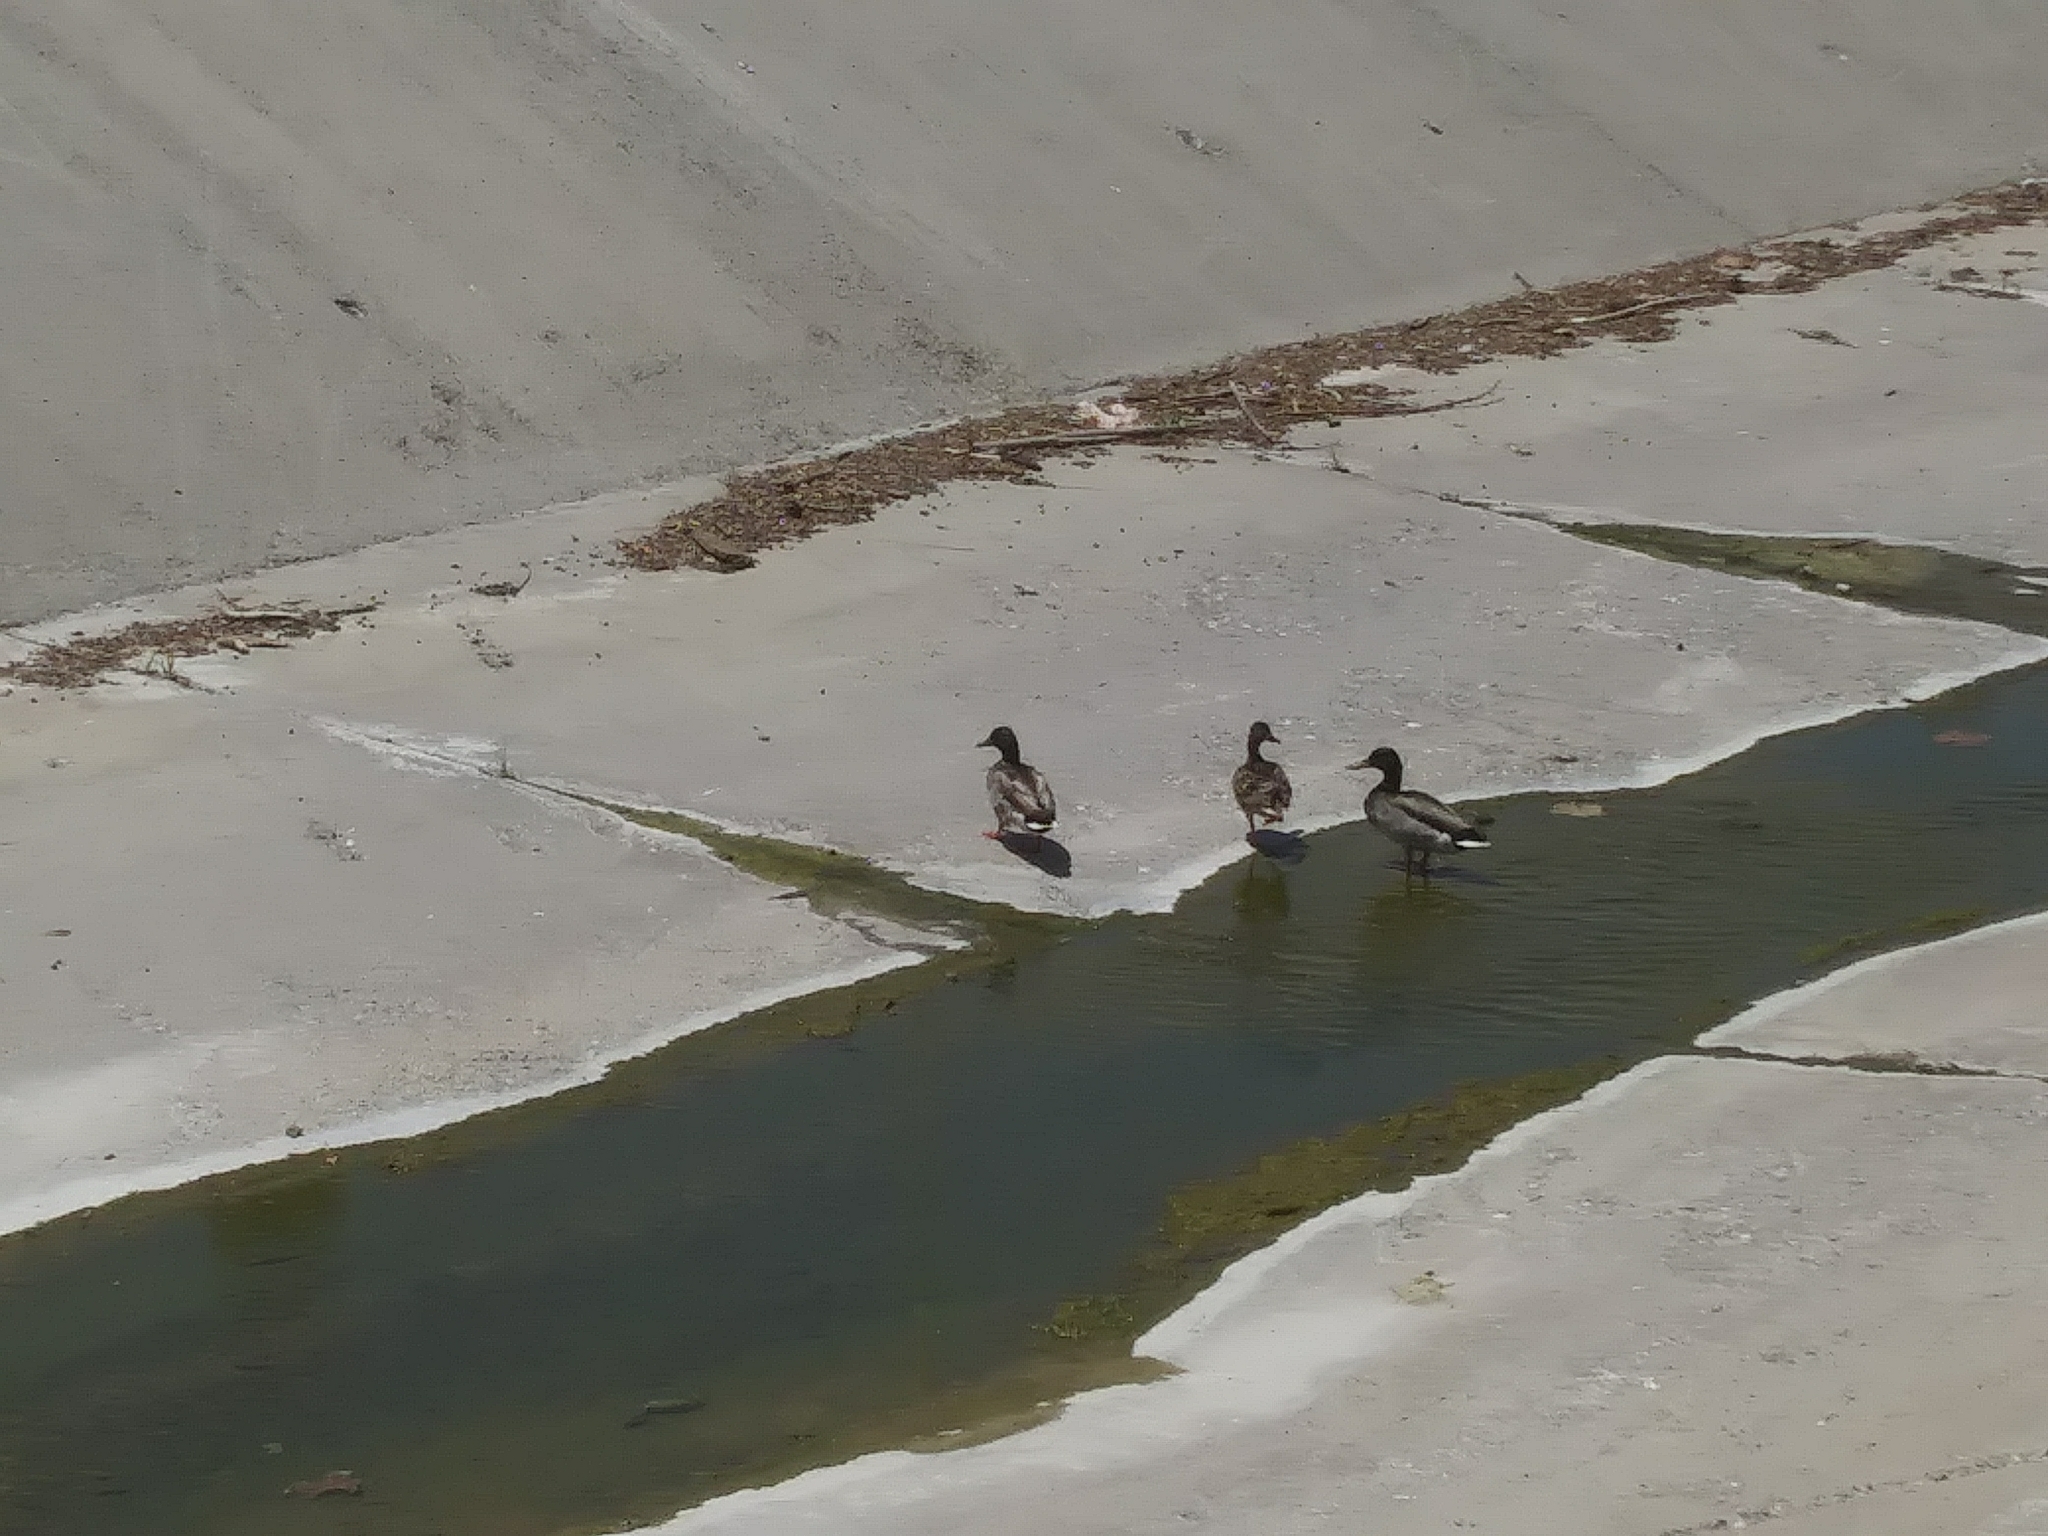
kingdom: Animalia
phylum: Chordata
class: Aves
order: Anseriformes
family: Anatidae
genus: Anas
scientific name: Anas platyrhynchos
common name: Mallard
